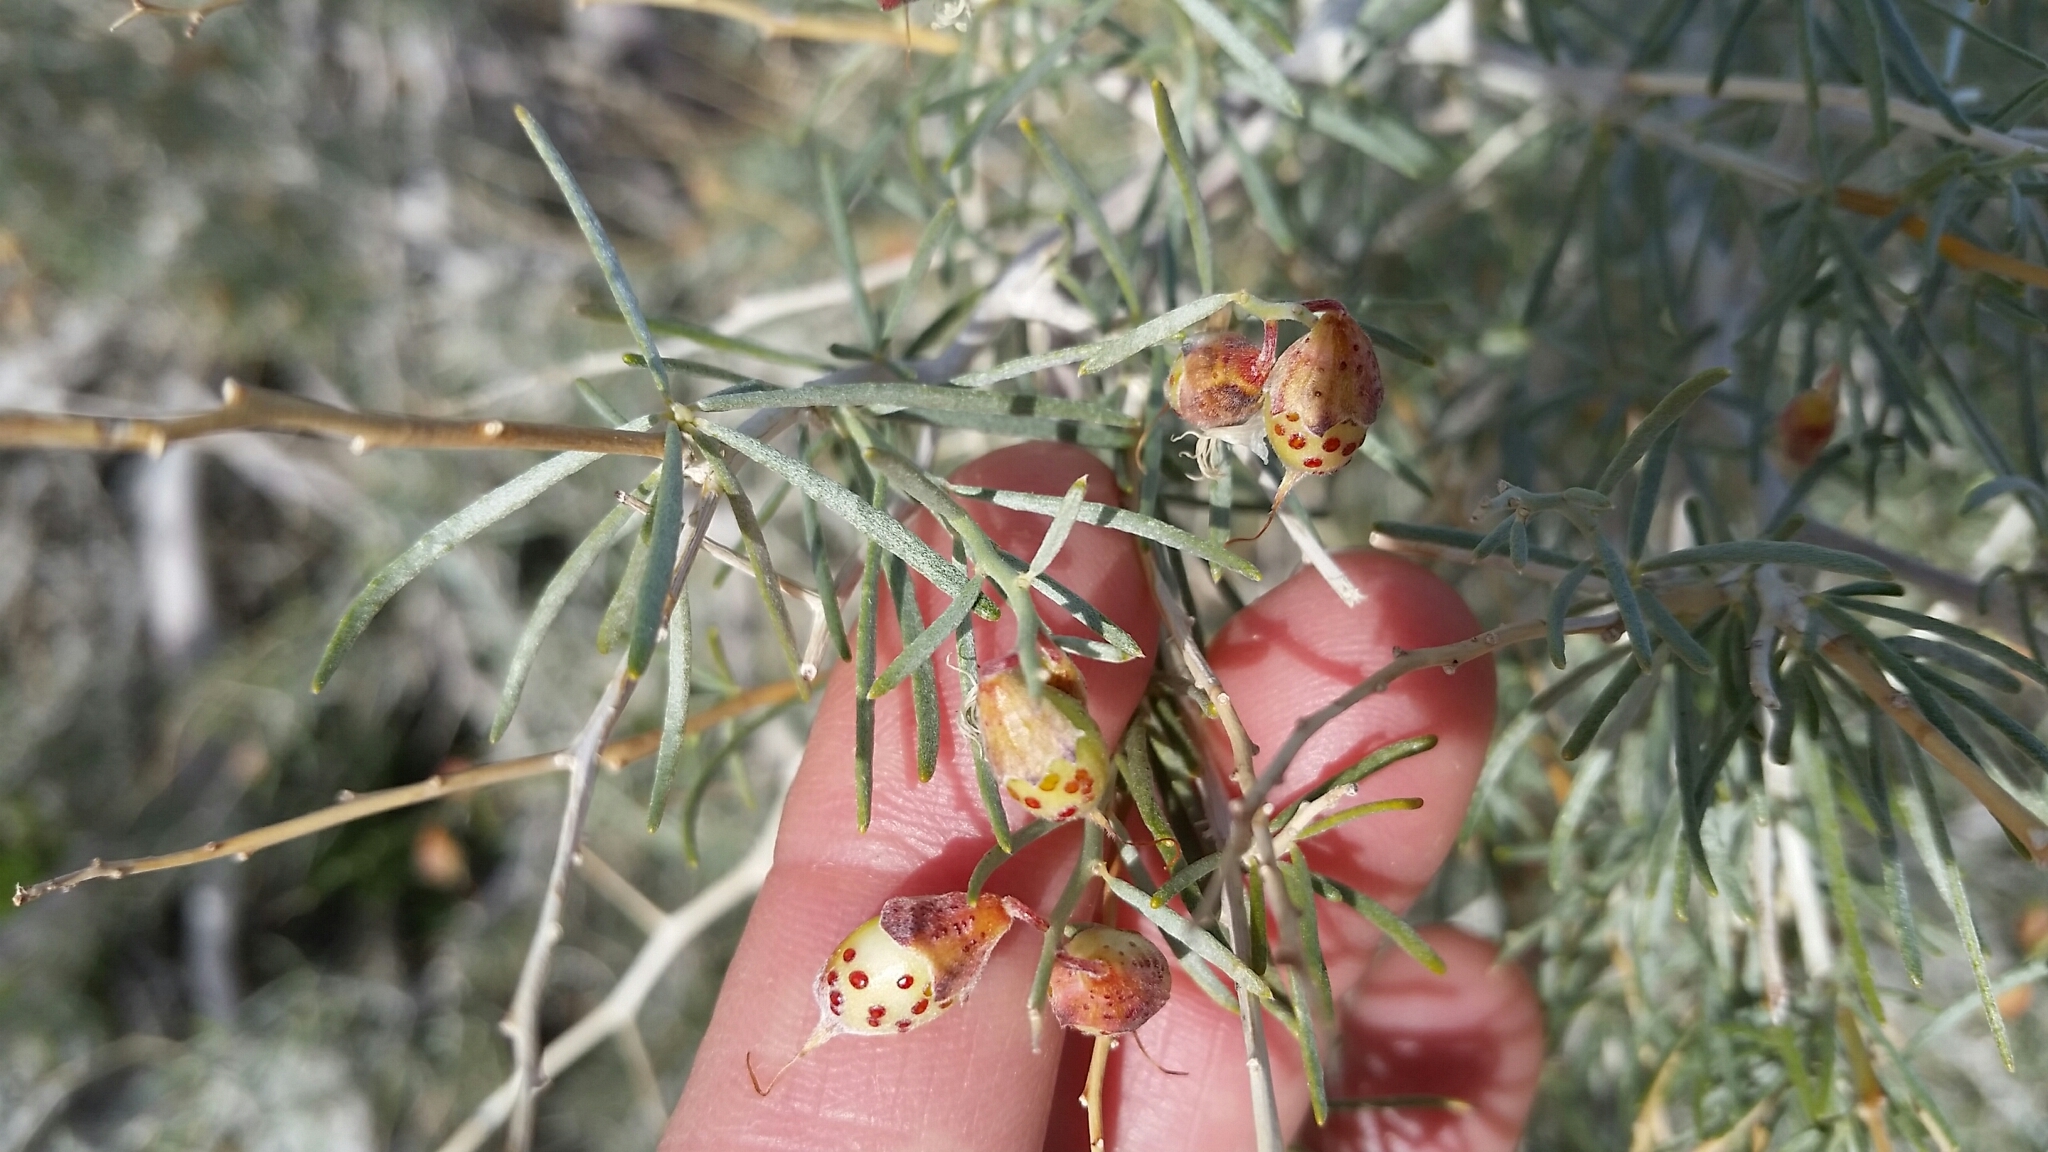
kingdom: Plantae
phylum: Tracheophyta
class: Magnoliopsida
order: Fabales
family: Fabaceae
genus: Psorothamnus
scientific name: Psorothamnus schottii
